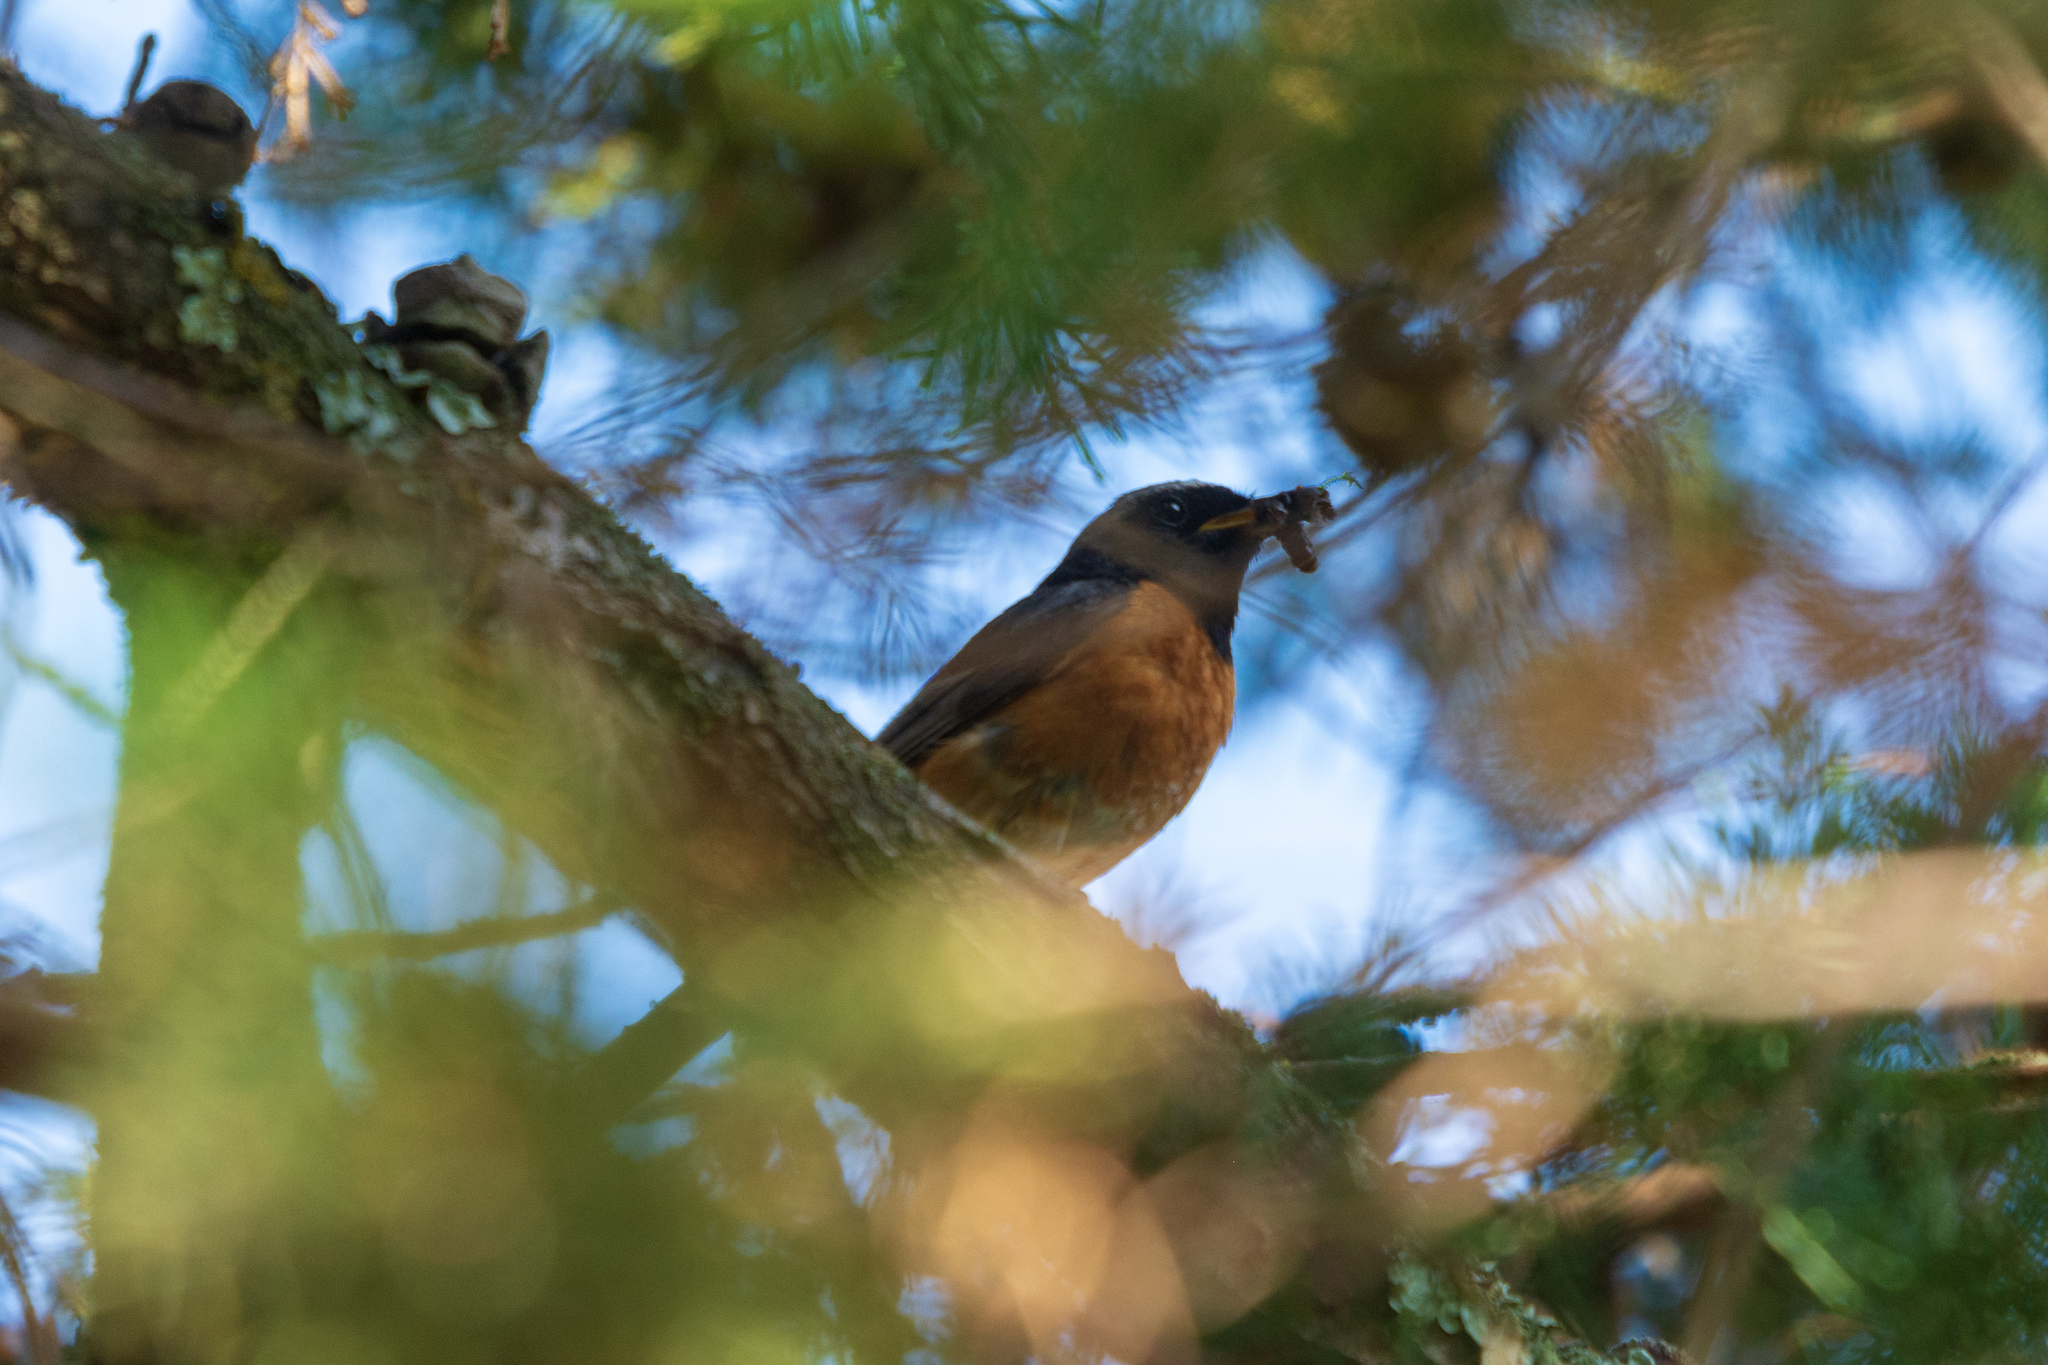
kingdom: Animalia
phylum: Chordata
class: Aves
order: Passeriformes
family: Muscicapidae
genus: Phoenicurus
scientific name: Phoenicurus phoenicurus
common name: Common redstart
